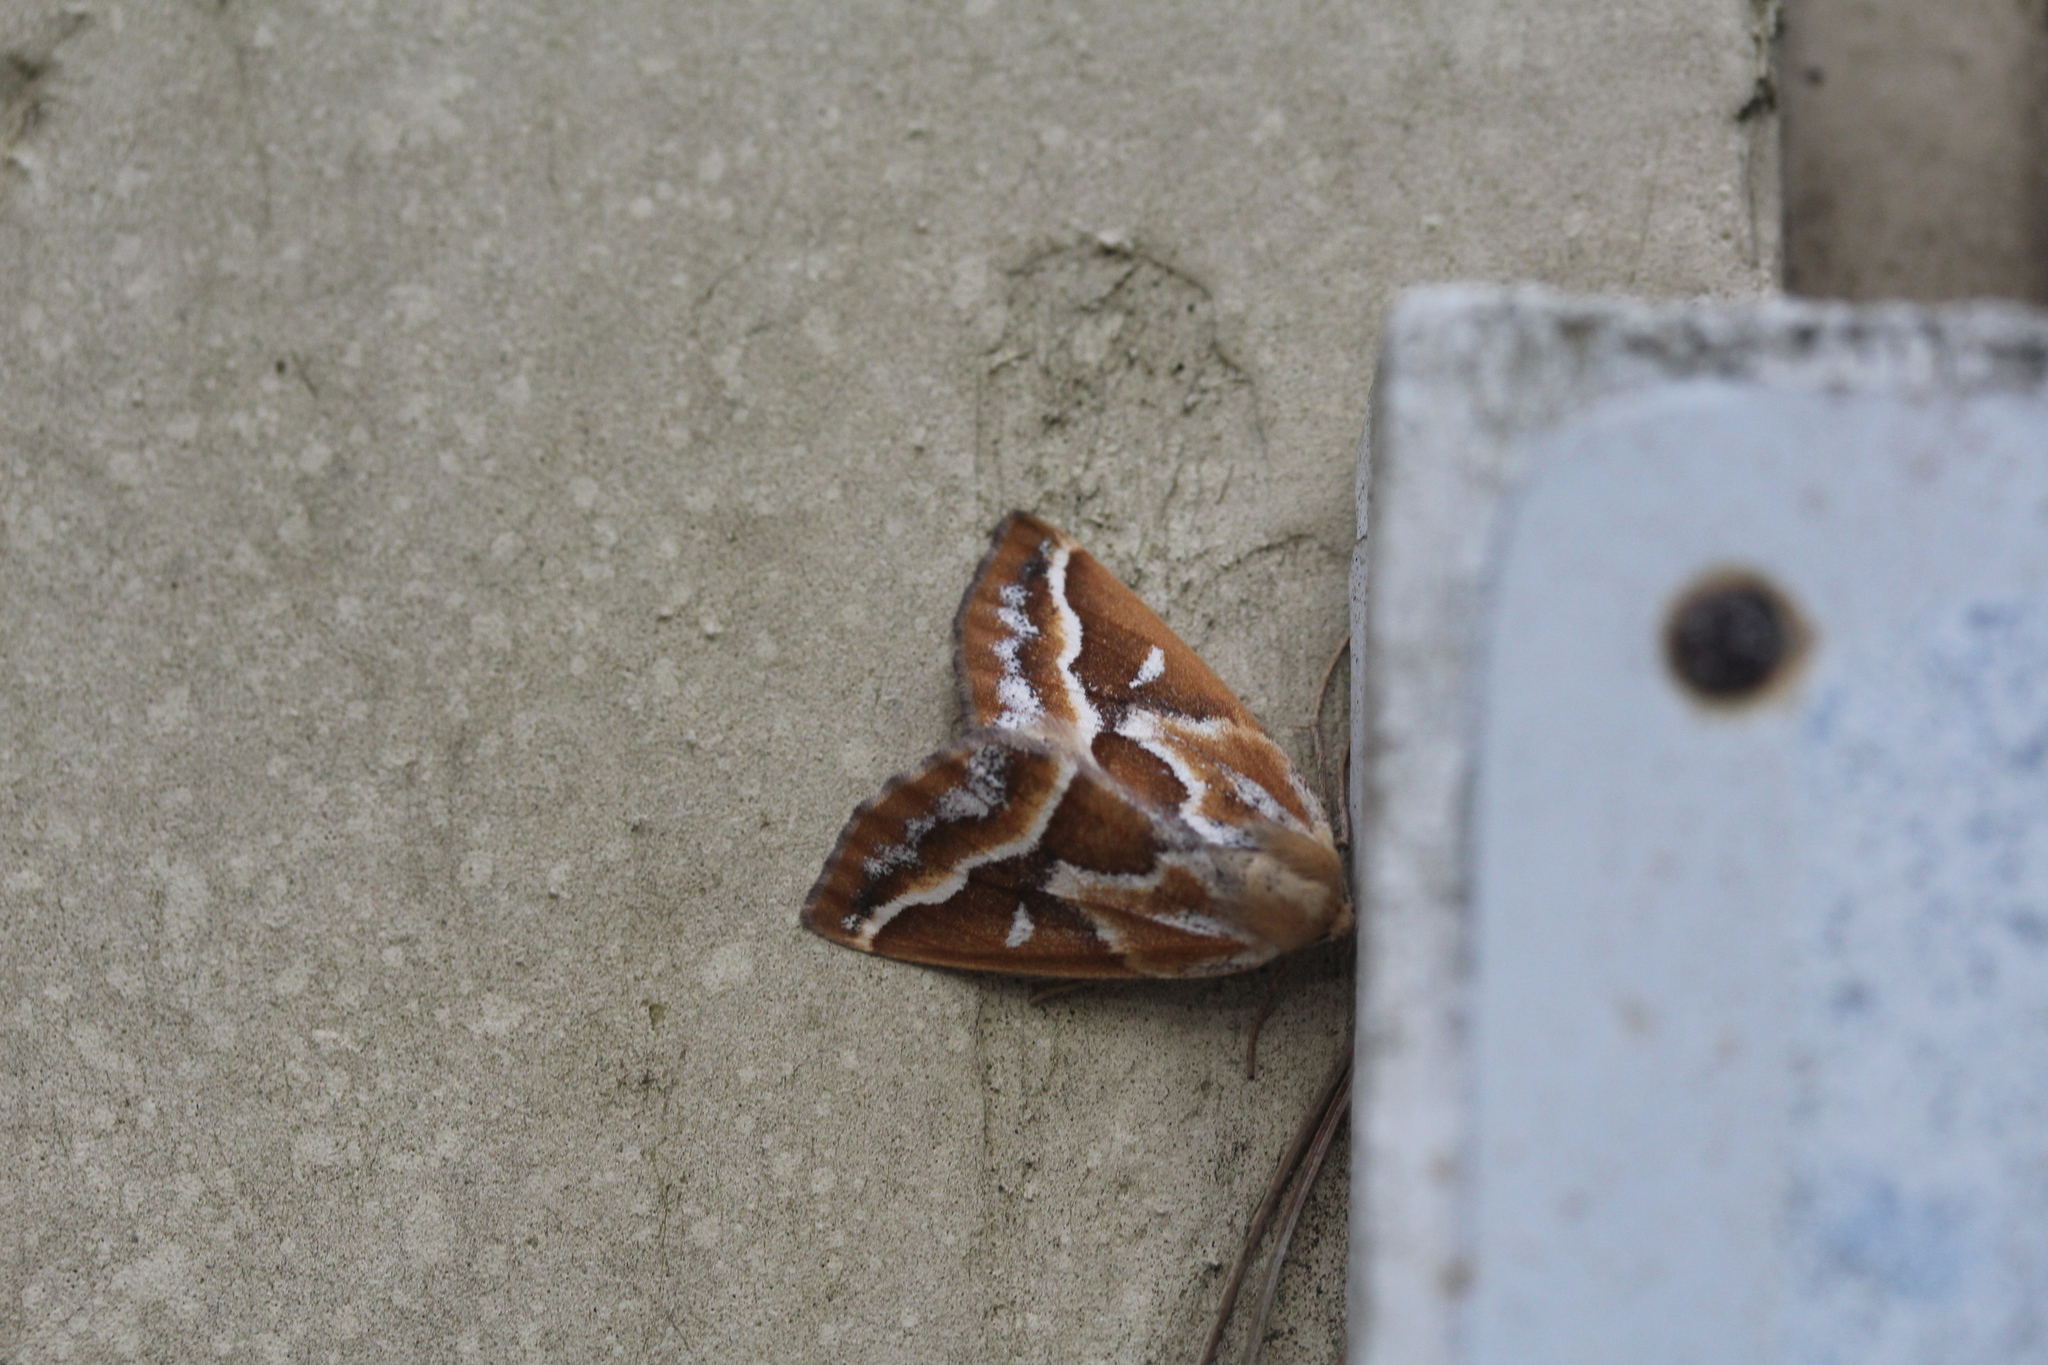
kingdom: Animalia
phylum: Arthropoda
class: Insecta
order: Lepidoptera
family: Geometridae
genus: Caripeta
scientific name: Caripeta angustiorata
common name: Brown pine looper
